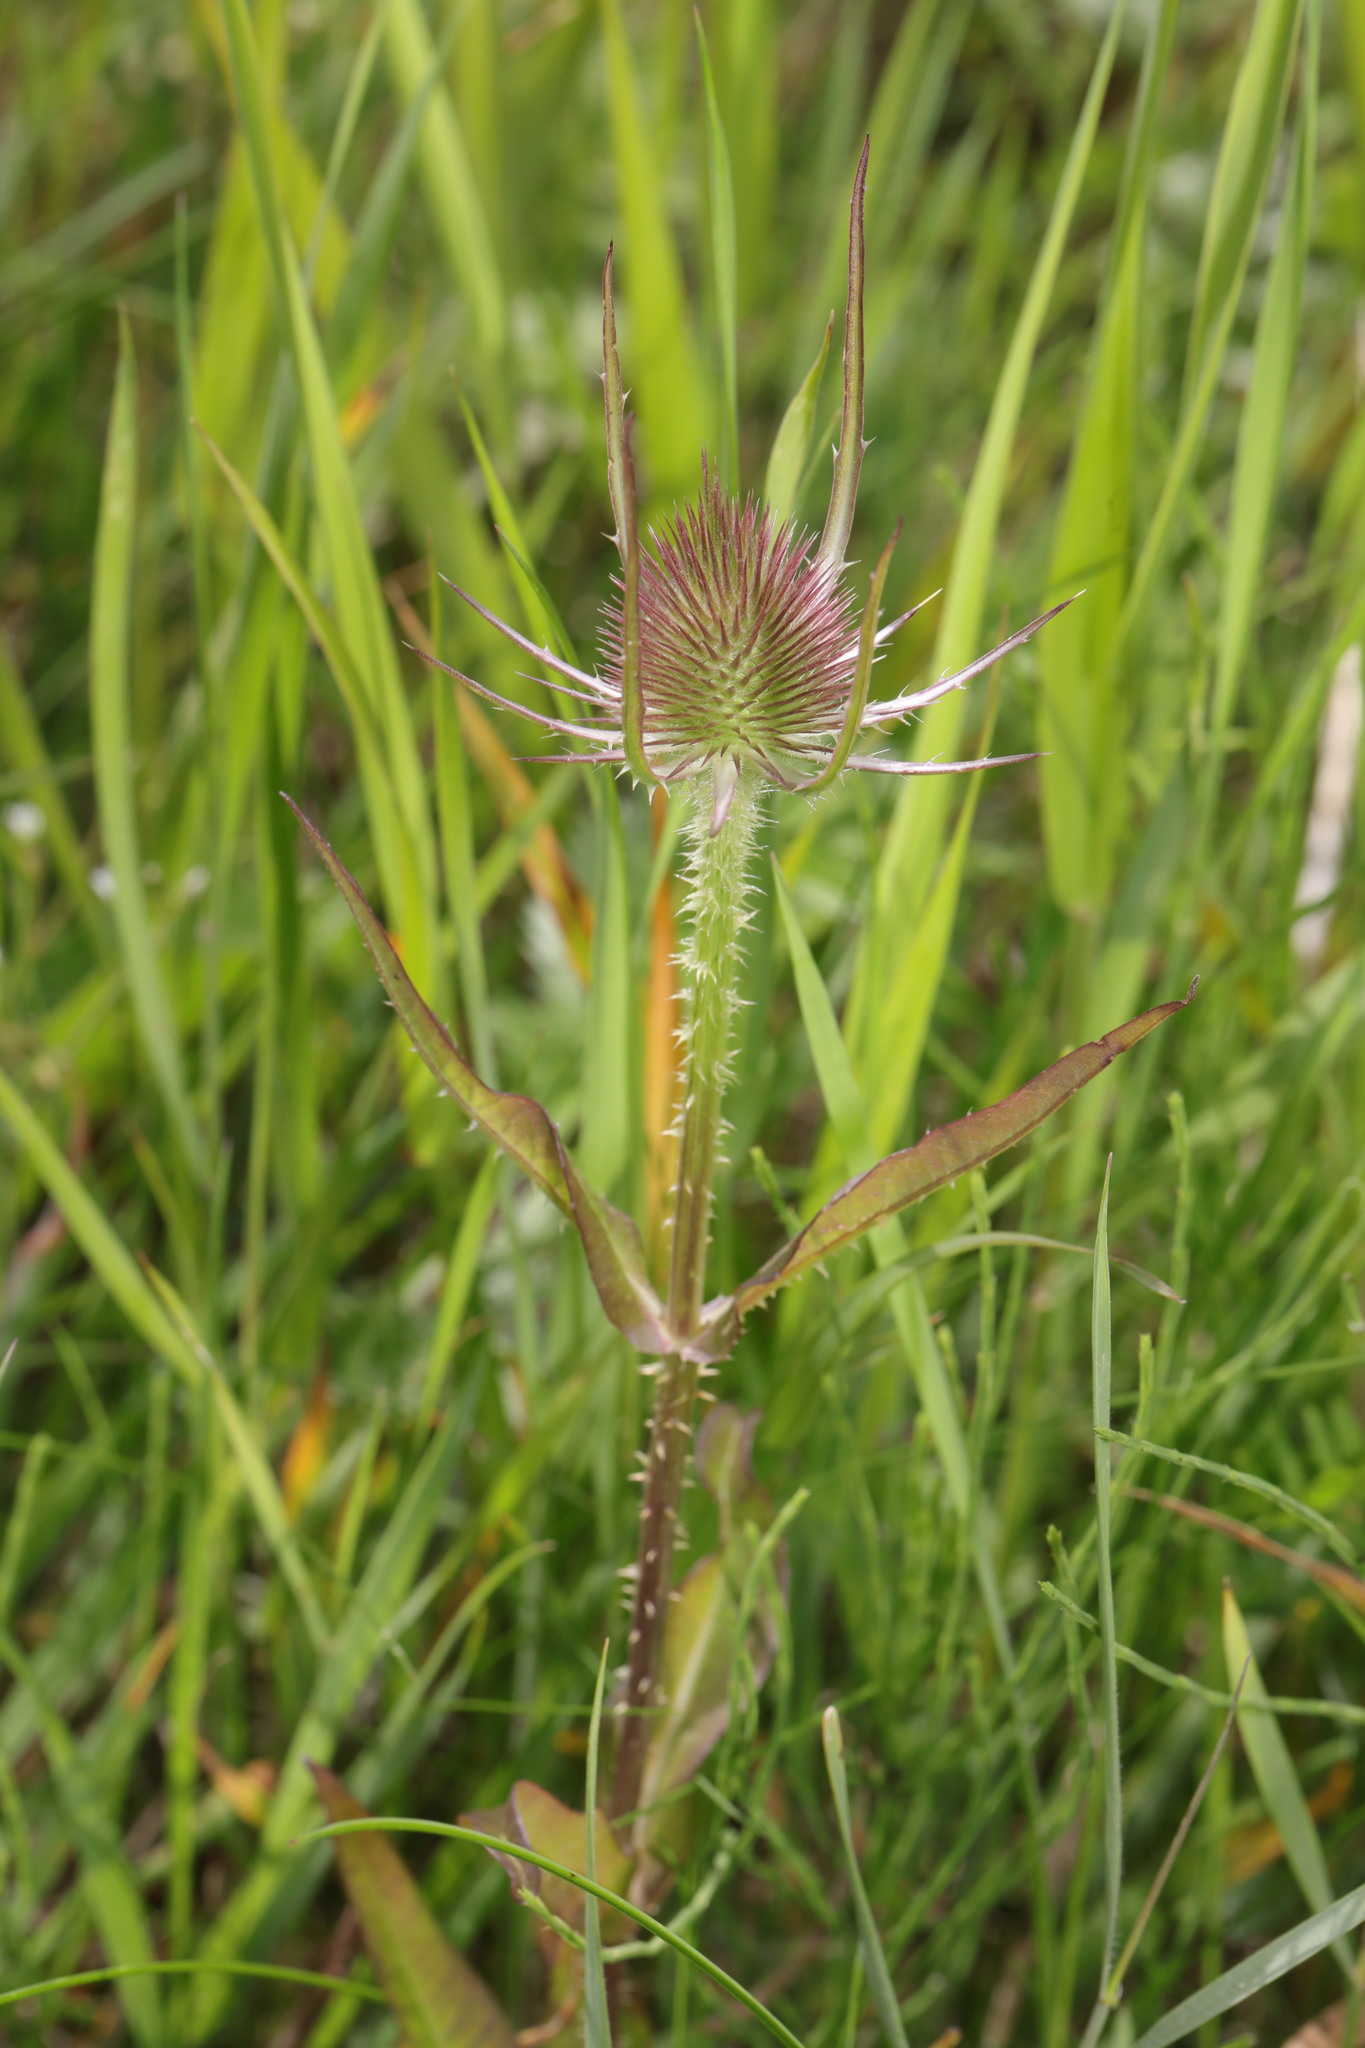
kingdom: Plantae
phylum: Tracheophyta
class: Magnoliopsida
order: Dipsacales
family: Caprifoliaceae
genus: Dipsacus
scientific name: Dipsacus fullonum
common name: Teasel
